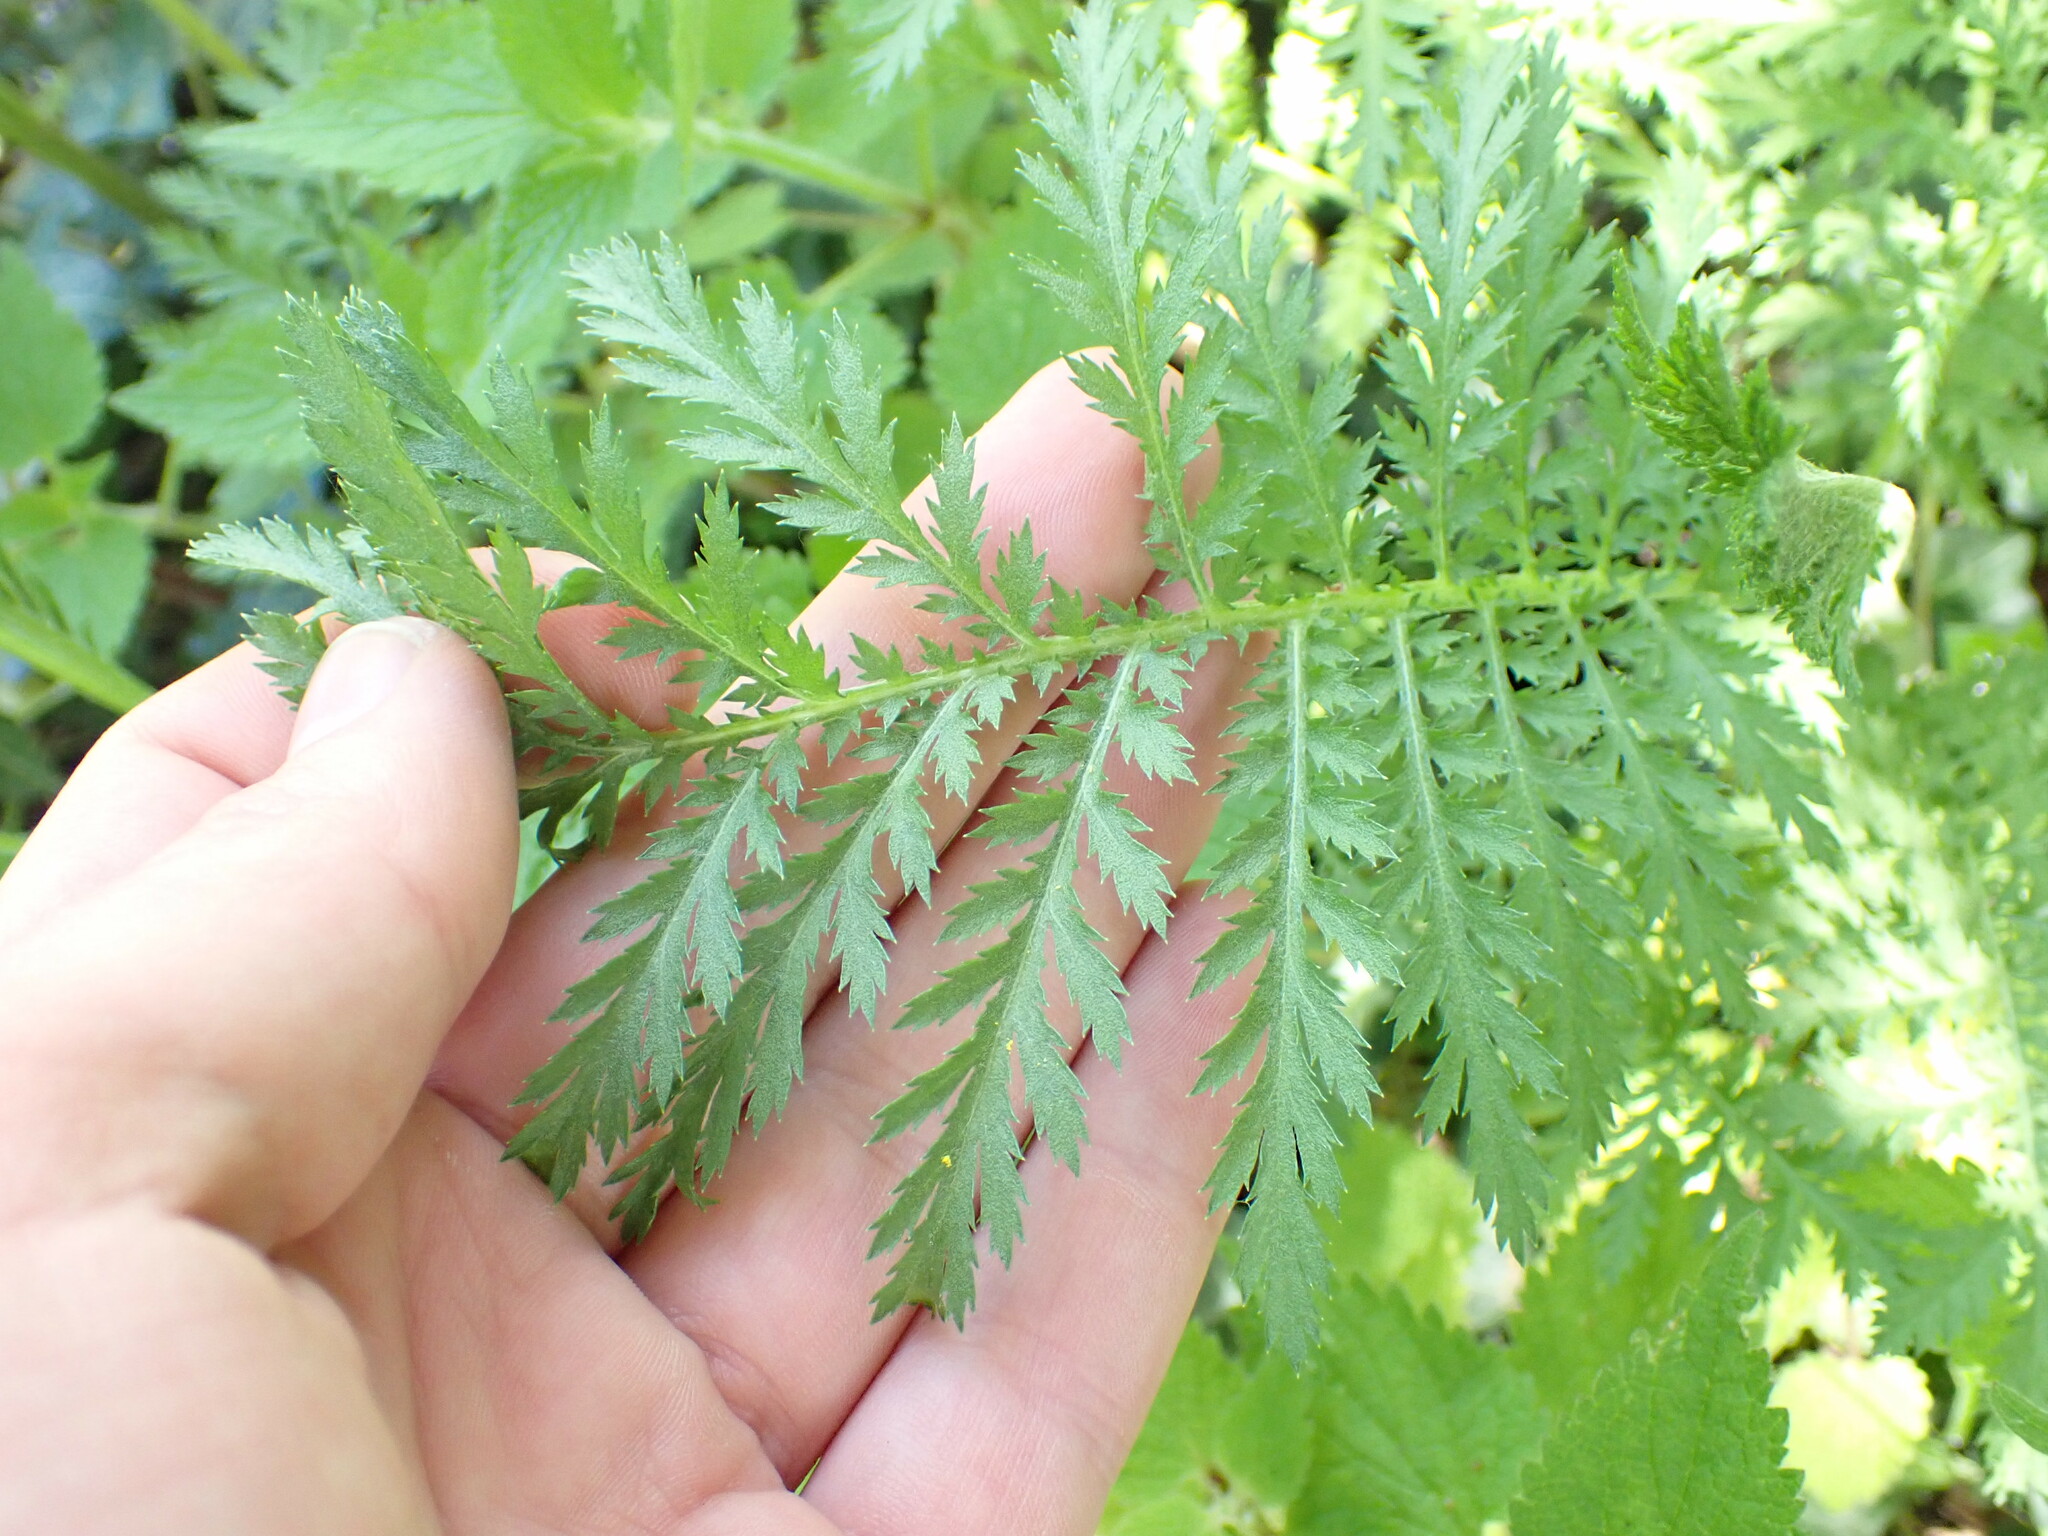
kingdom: Plantae
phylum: Tracheophyta
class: Magnoliopsida
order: Asterales
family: Asteraceae
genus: Tanacetum
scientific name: Tanacetum vulgare
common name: Common tansy
